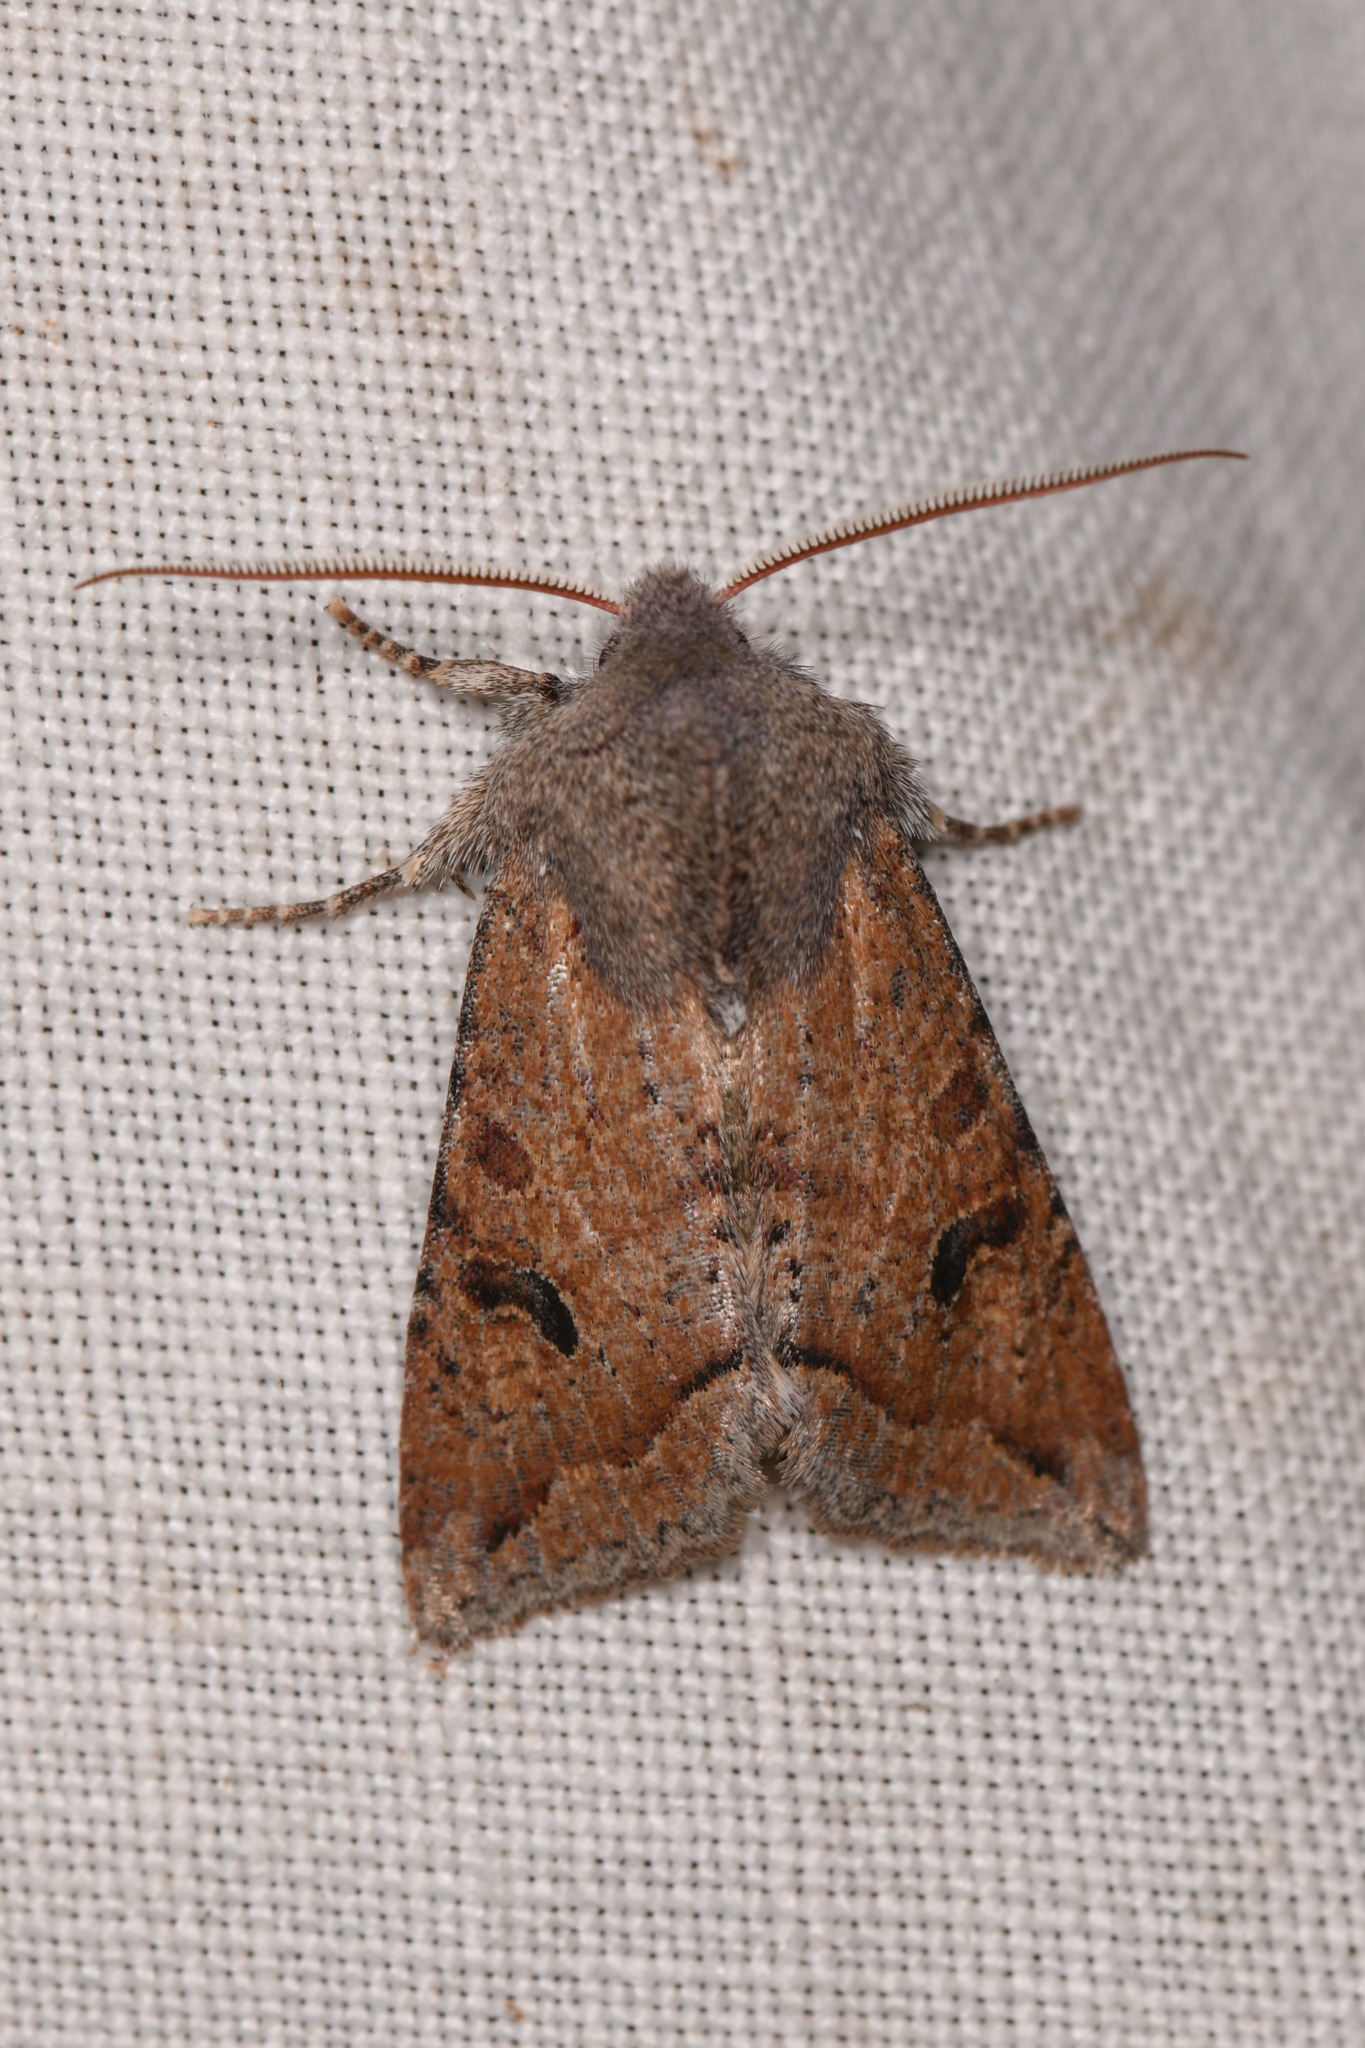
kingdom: Animalia
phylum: Arthropoda
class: Insecta
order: Lepidoptera
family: Noctuidae
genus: Orthosia
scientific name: Orthosia erythrolita
